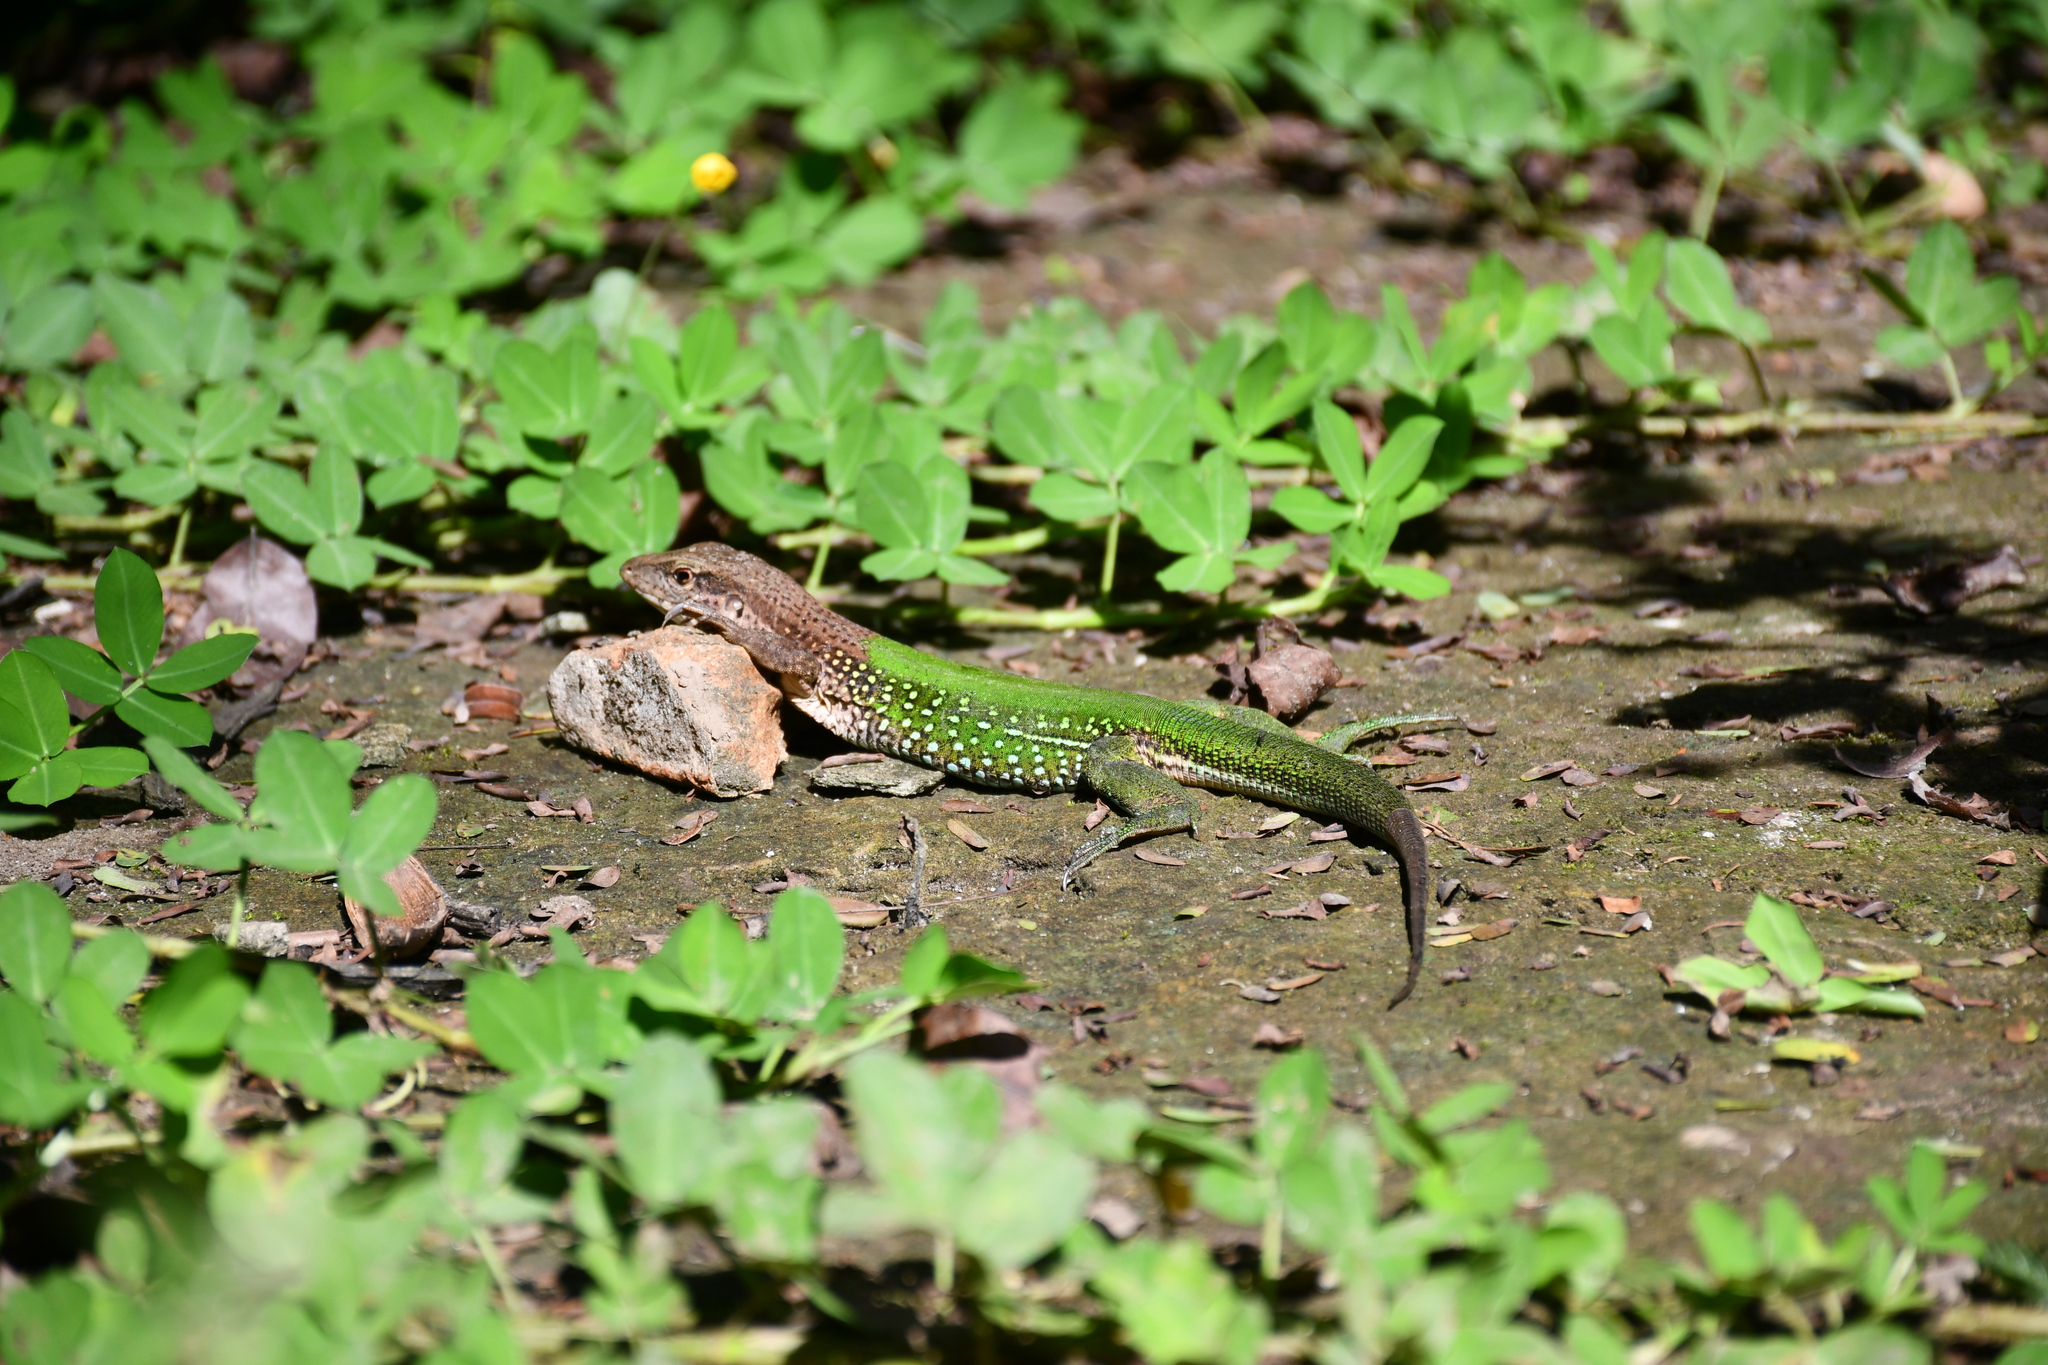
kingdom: Animalia
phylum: Chordata
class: Squamata
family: Teiidae
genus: Ameiva
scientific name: Ameiva ameiva
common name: Giant ameiva
